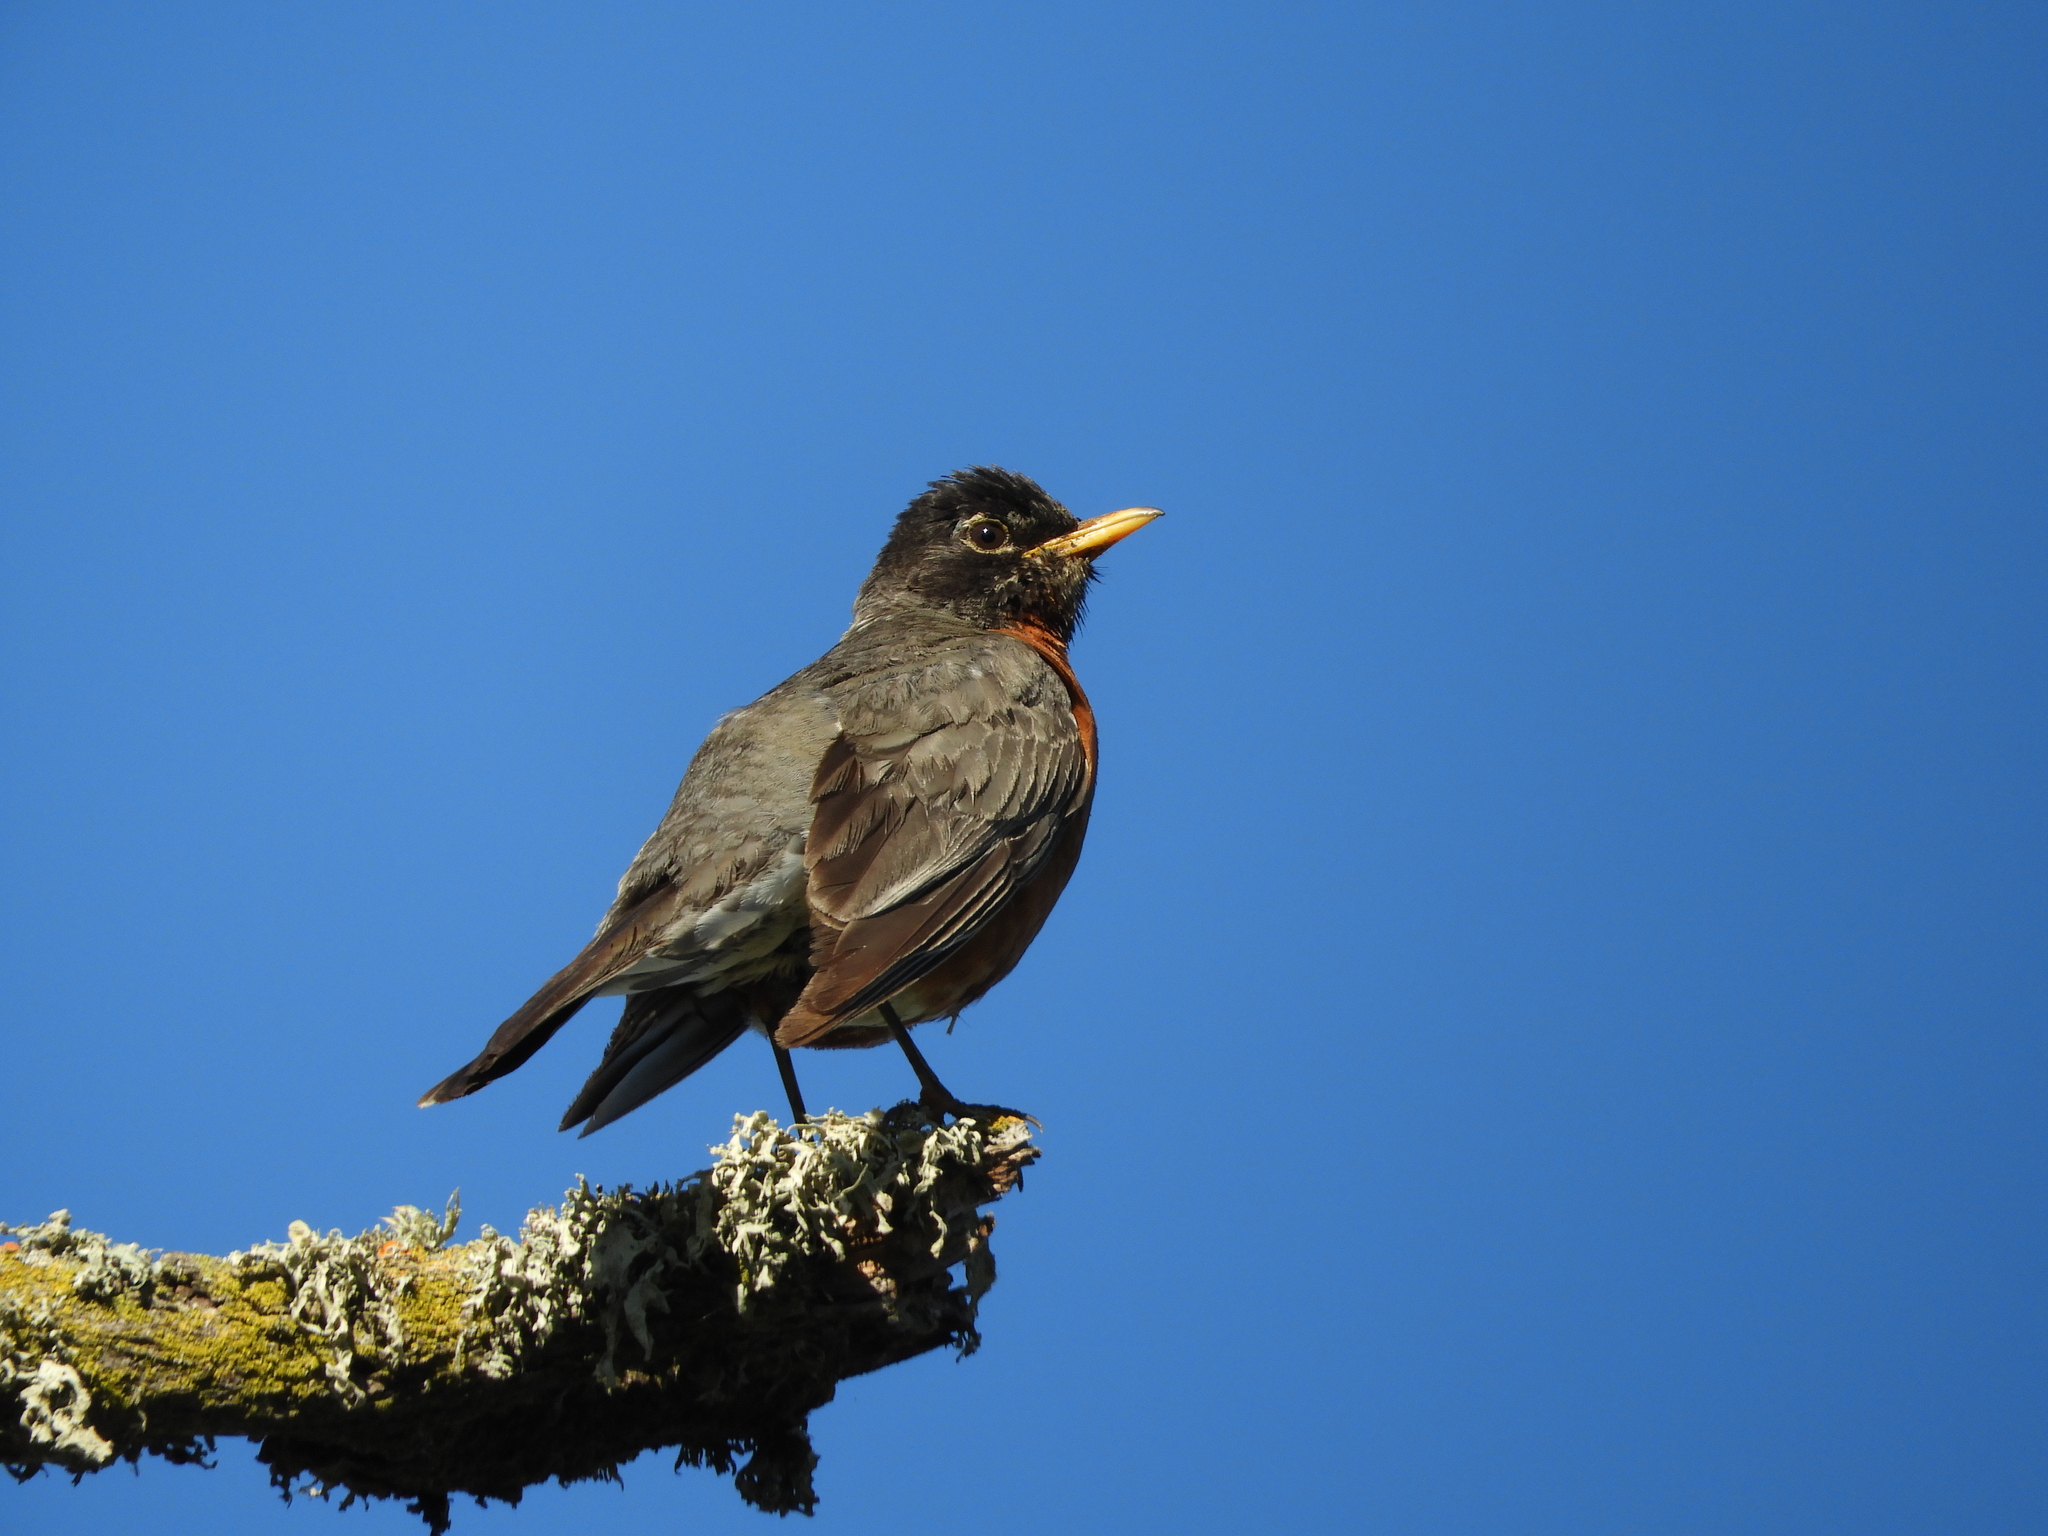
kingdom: Animalia
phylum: Chordata
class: Aves
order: Passeriformes
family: Turdidae
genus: Turdus
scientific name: Turdus migratorius
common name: American robin
